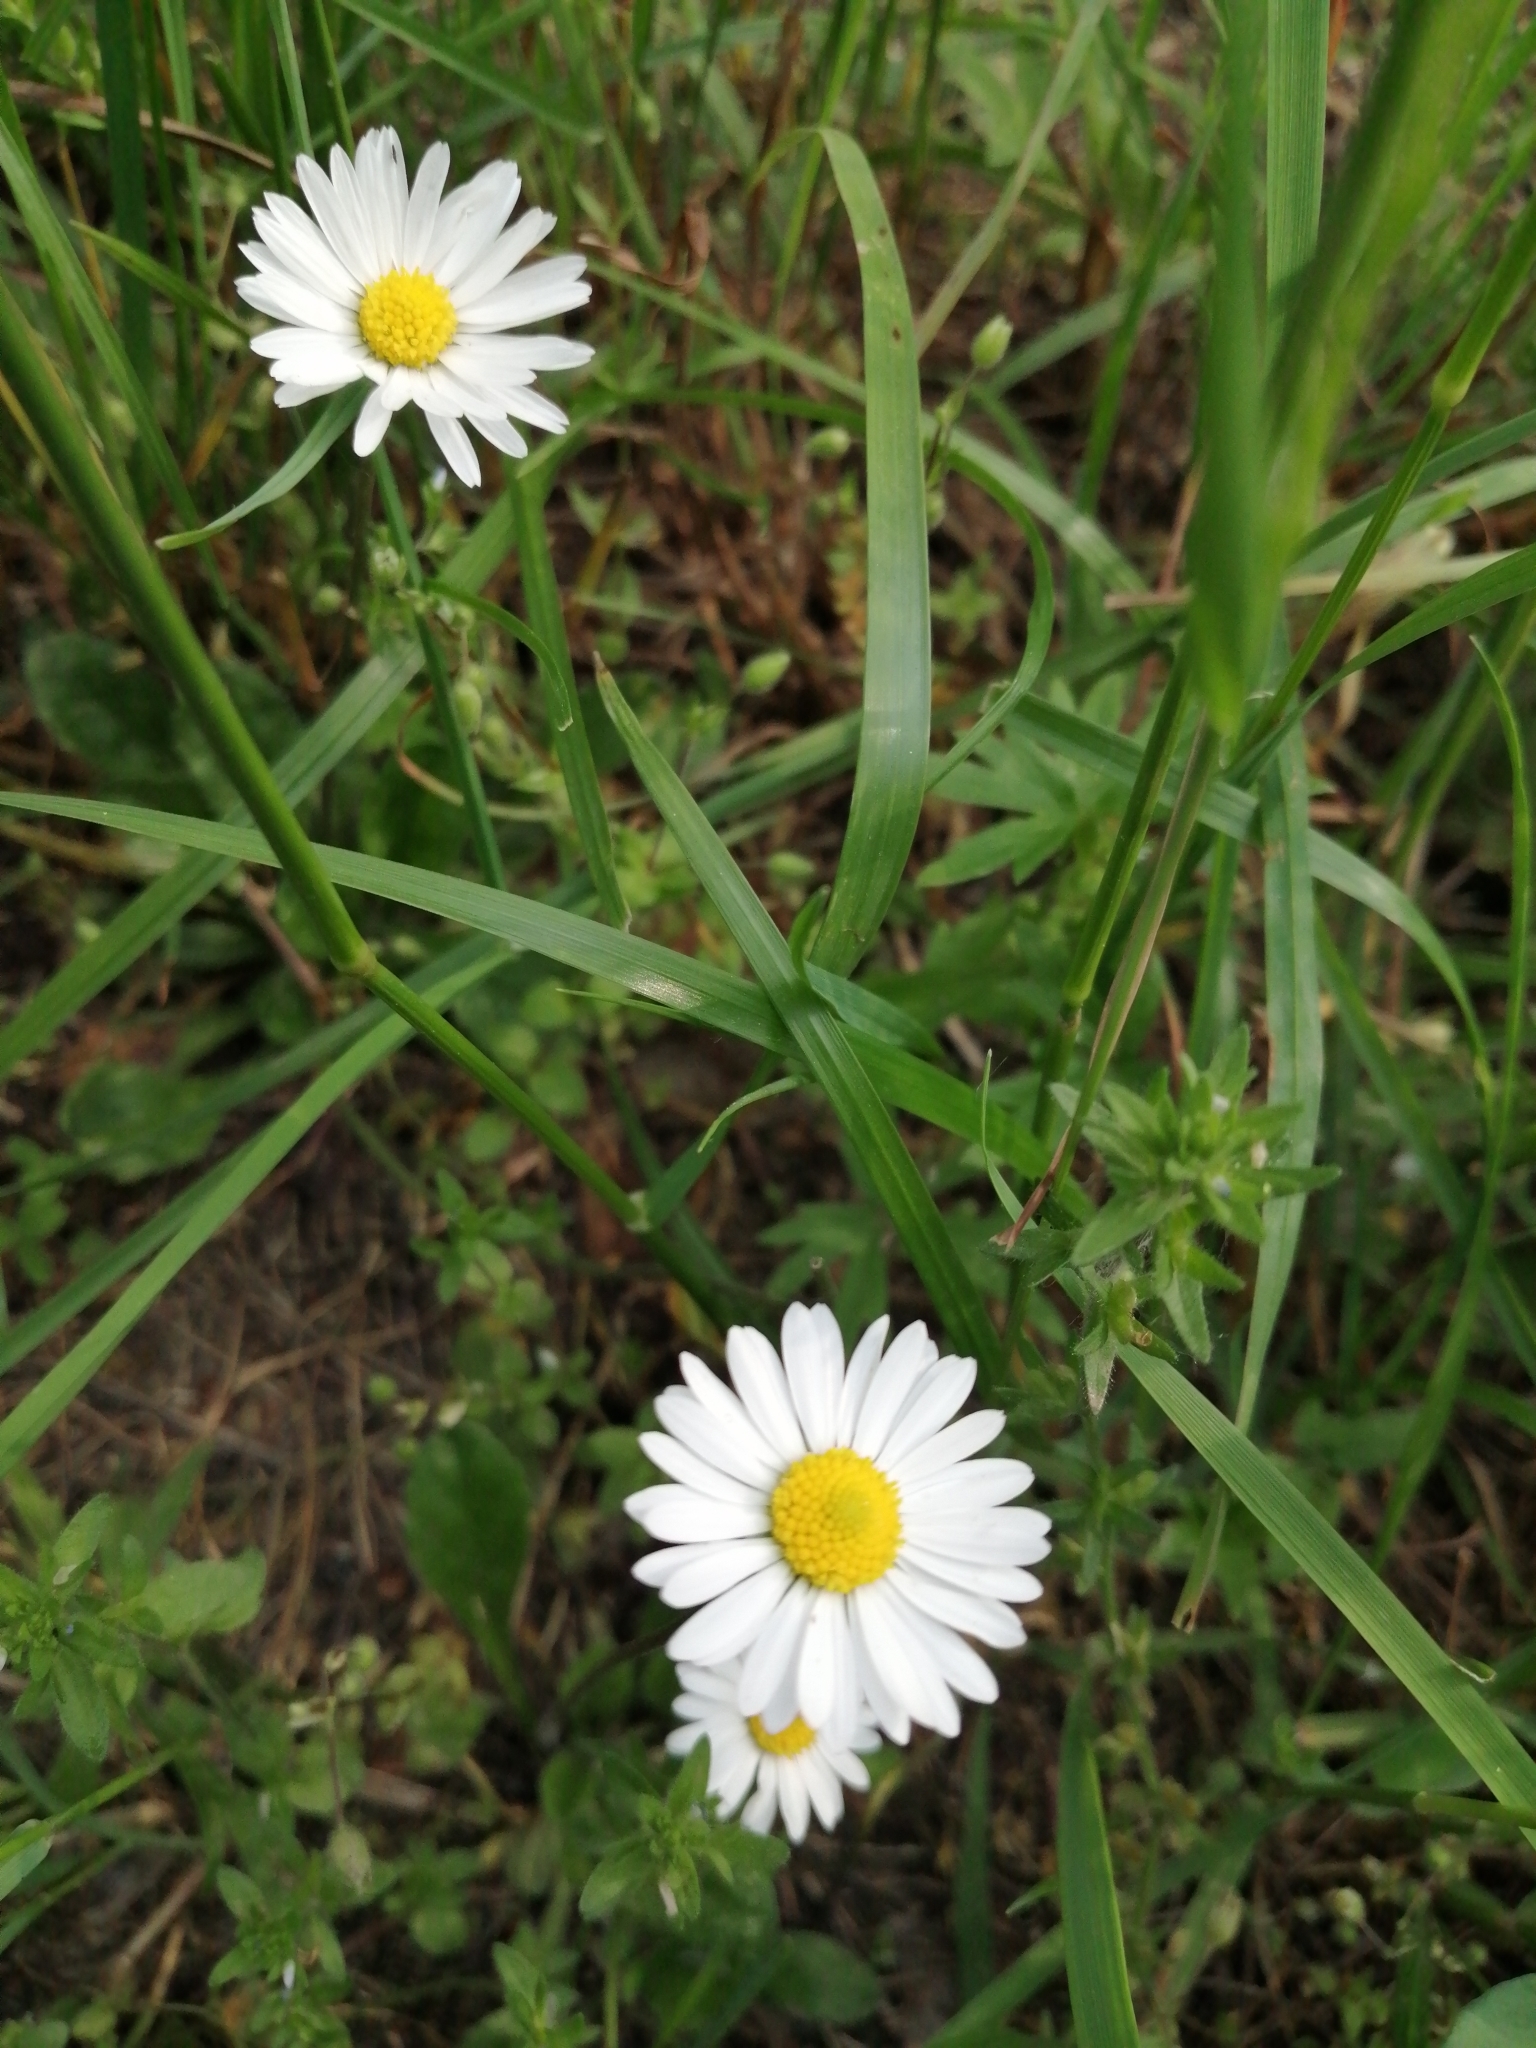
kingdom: Plantae
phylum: Tracheophyta
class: Magnoliopsida
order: Asterales
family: Asteraceae
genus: Bellis
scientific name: Bellis perennis
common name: Lawndaisy
